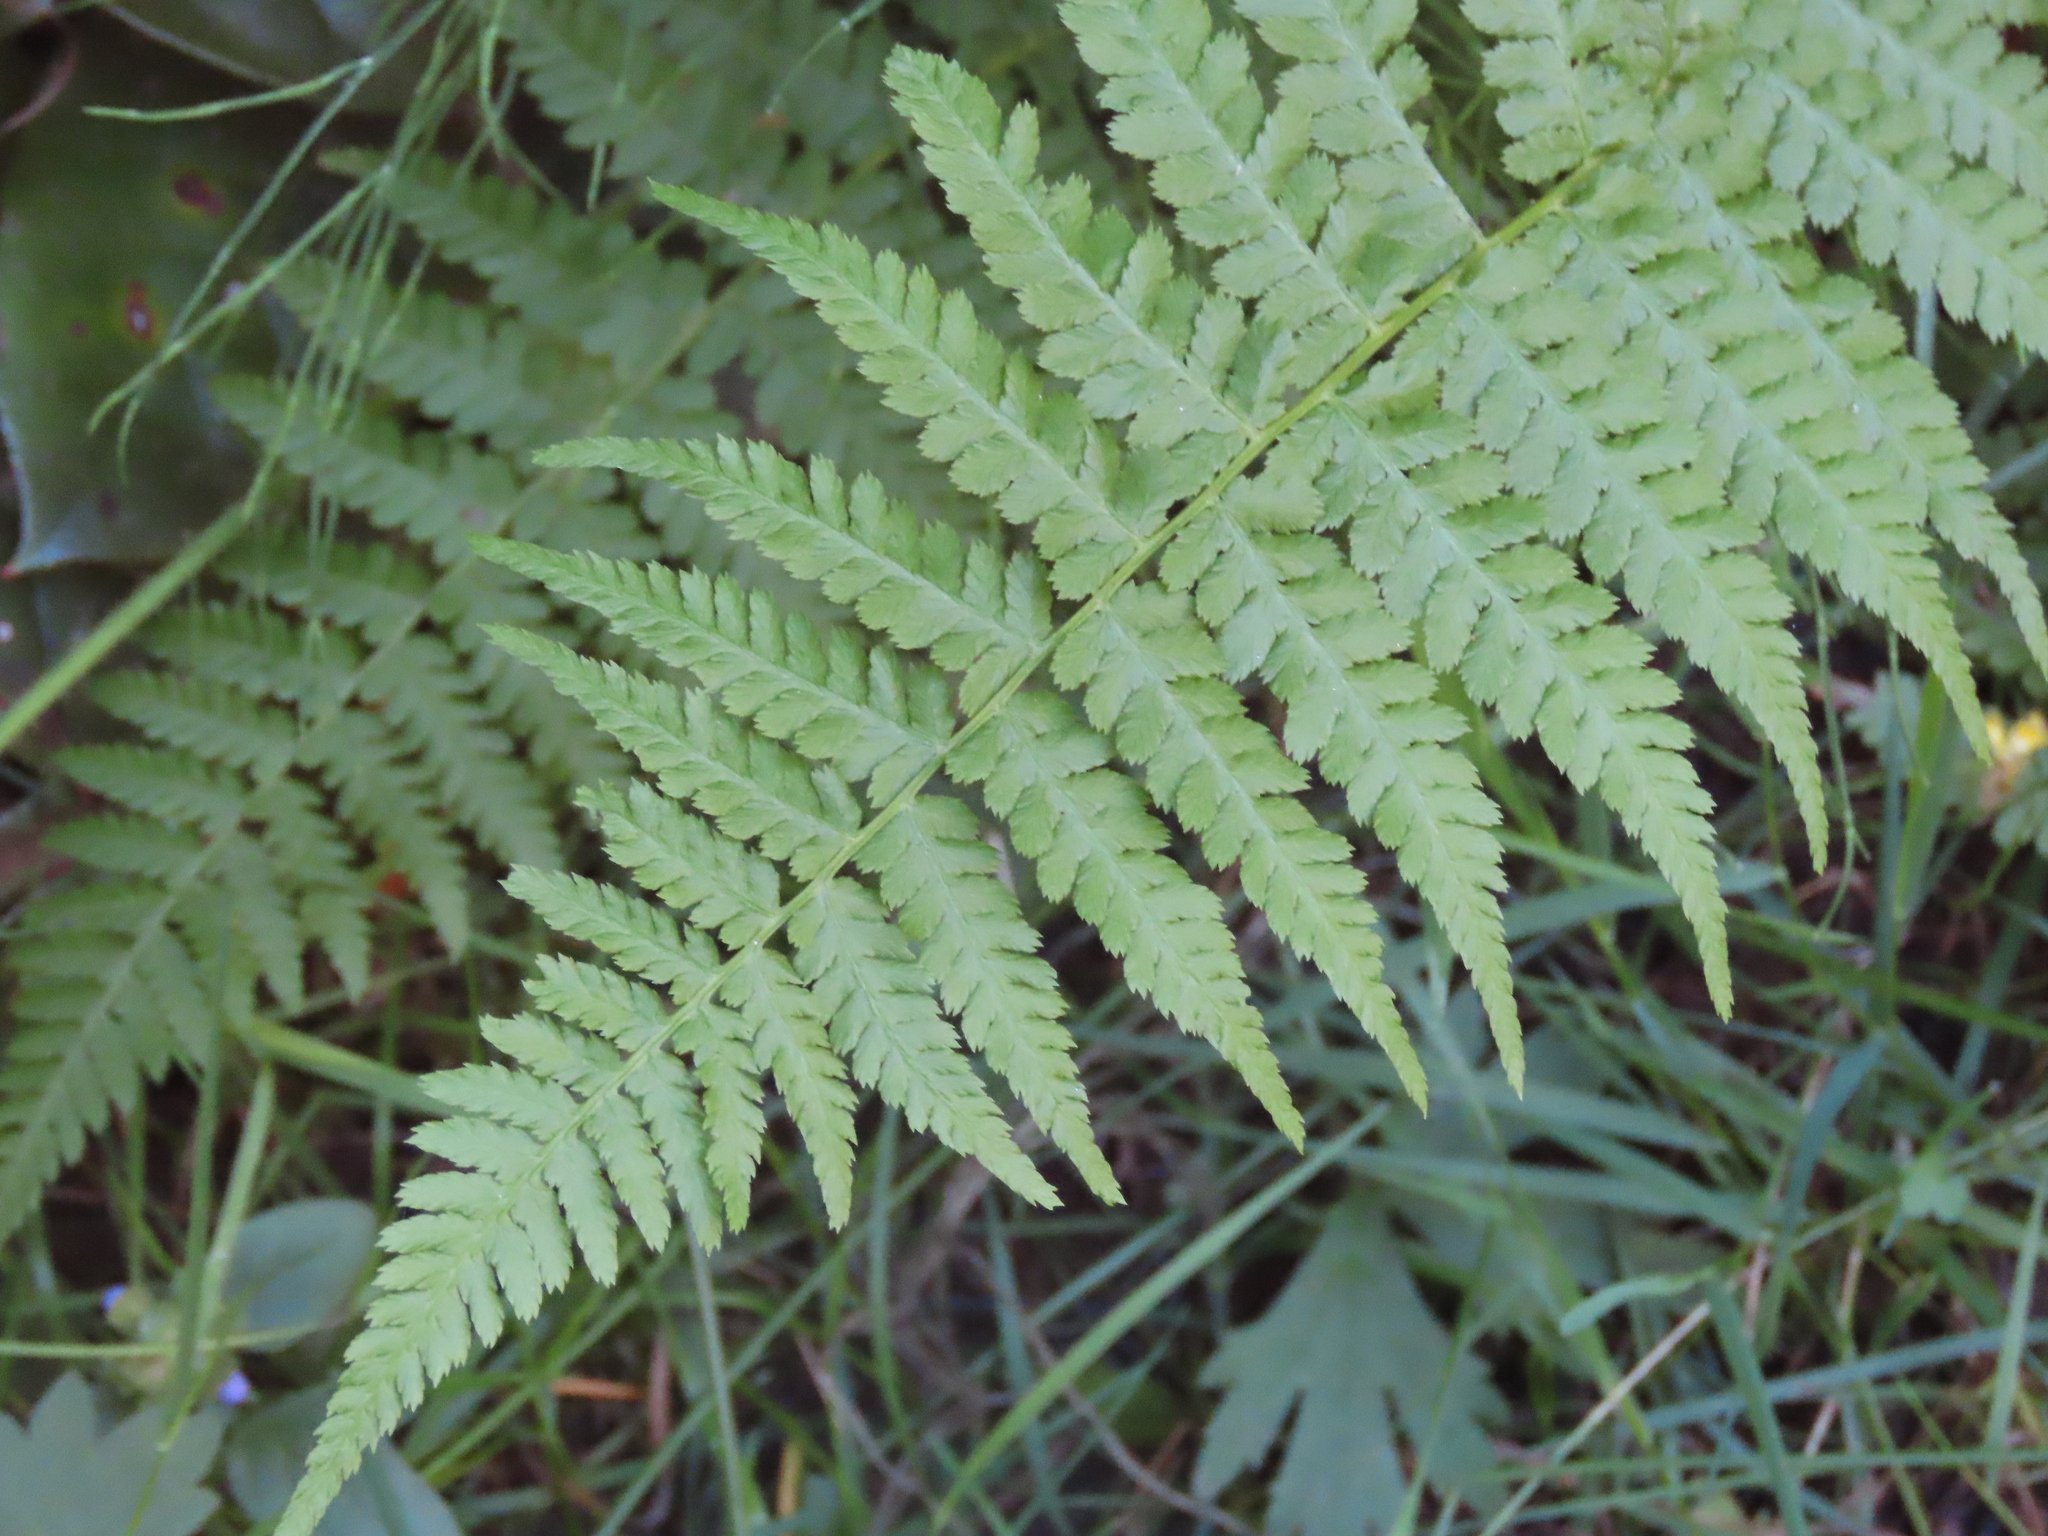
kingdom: Plantae
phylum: Tracheophyta
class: Polypodiopsida
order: Polypodiales
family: Athyriaceae
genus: Athyrium
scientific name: Athyrium filix-femina
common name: Lady fern
